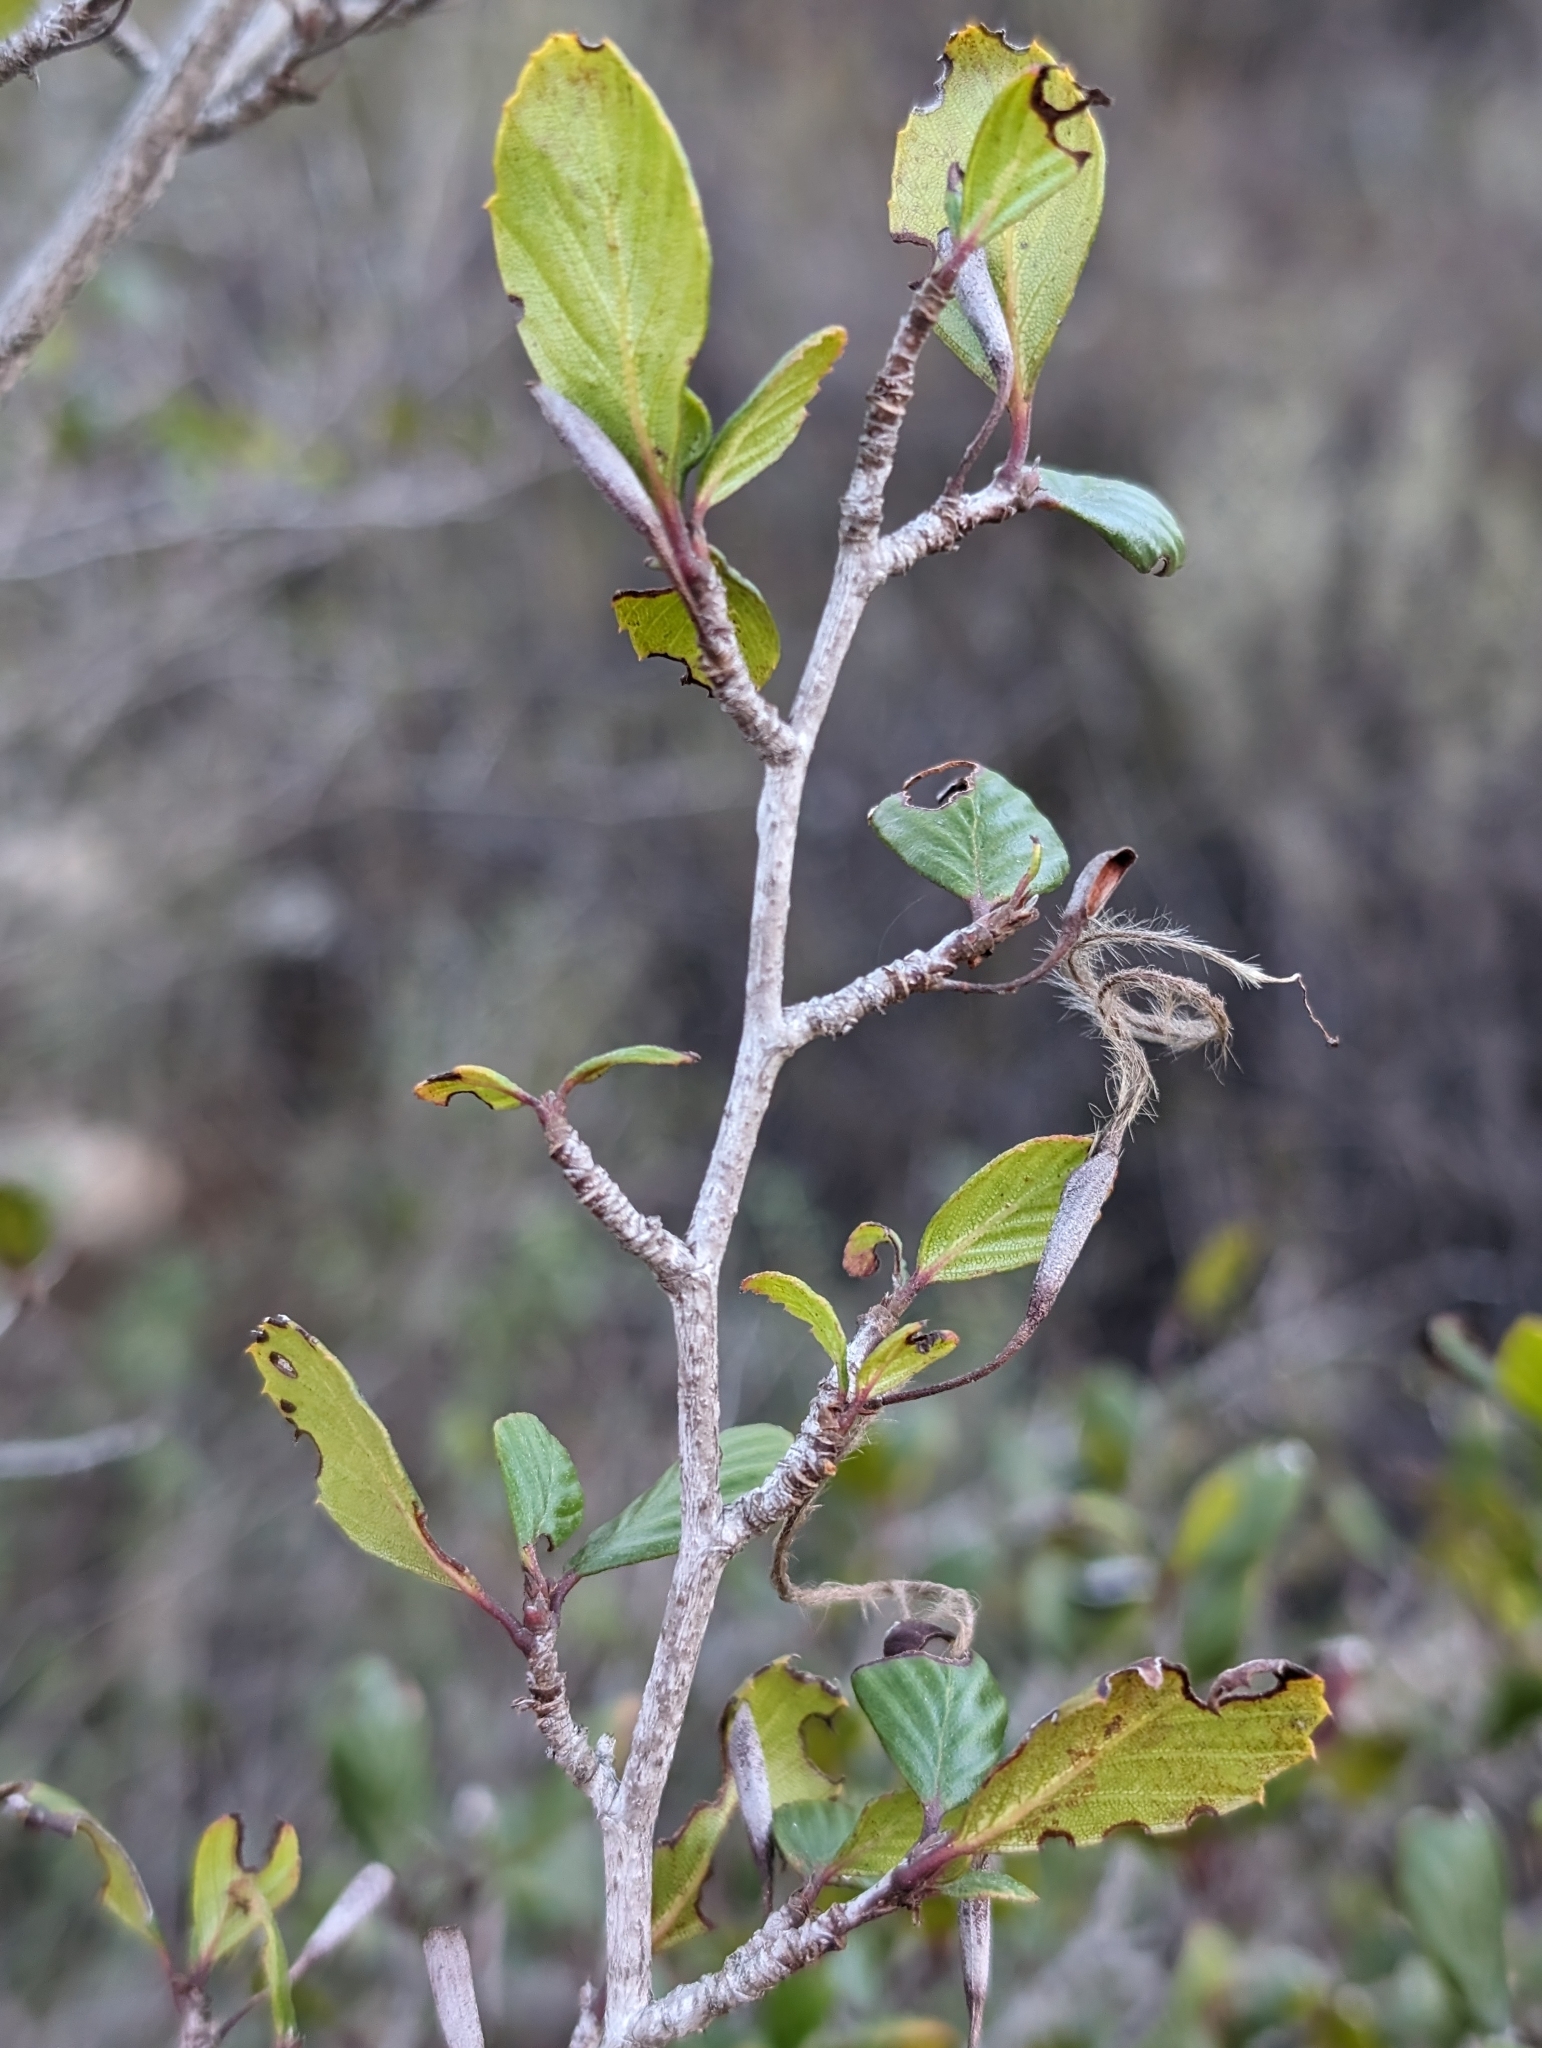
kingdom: Plantae
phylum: Tracheophyta
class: Magnoliopsida
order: Rosales
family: Rosaceae
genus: Cercocarpus
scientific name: Cercocarpus montanus
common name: Alder-leaf cercocarpus
